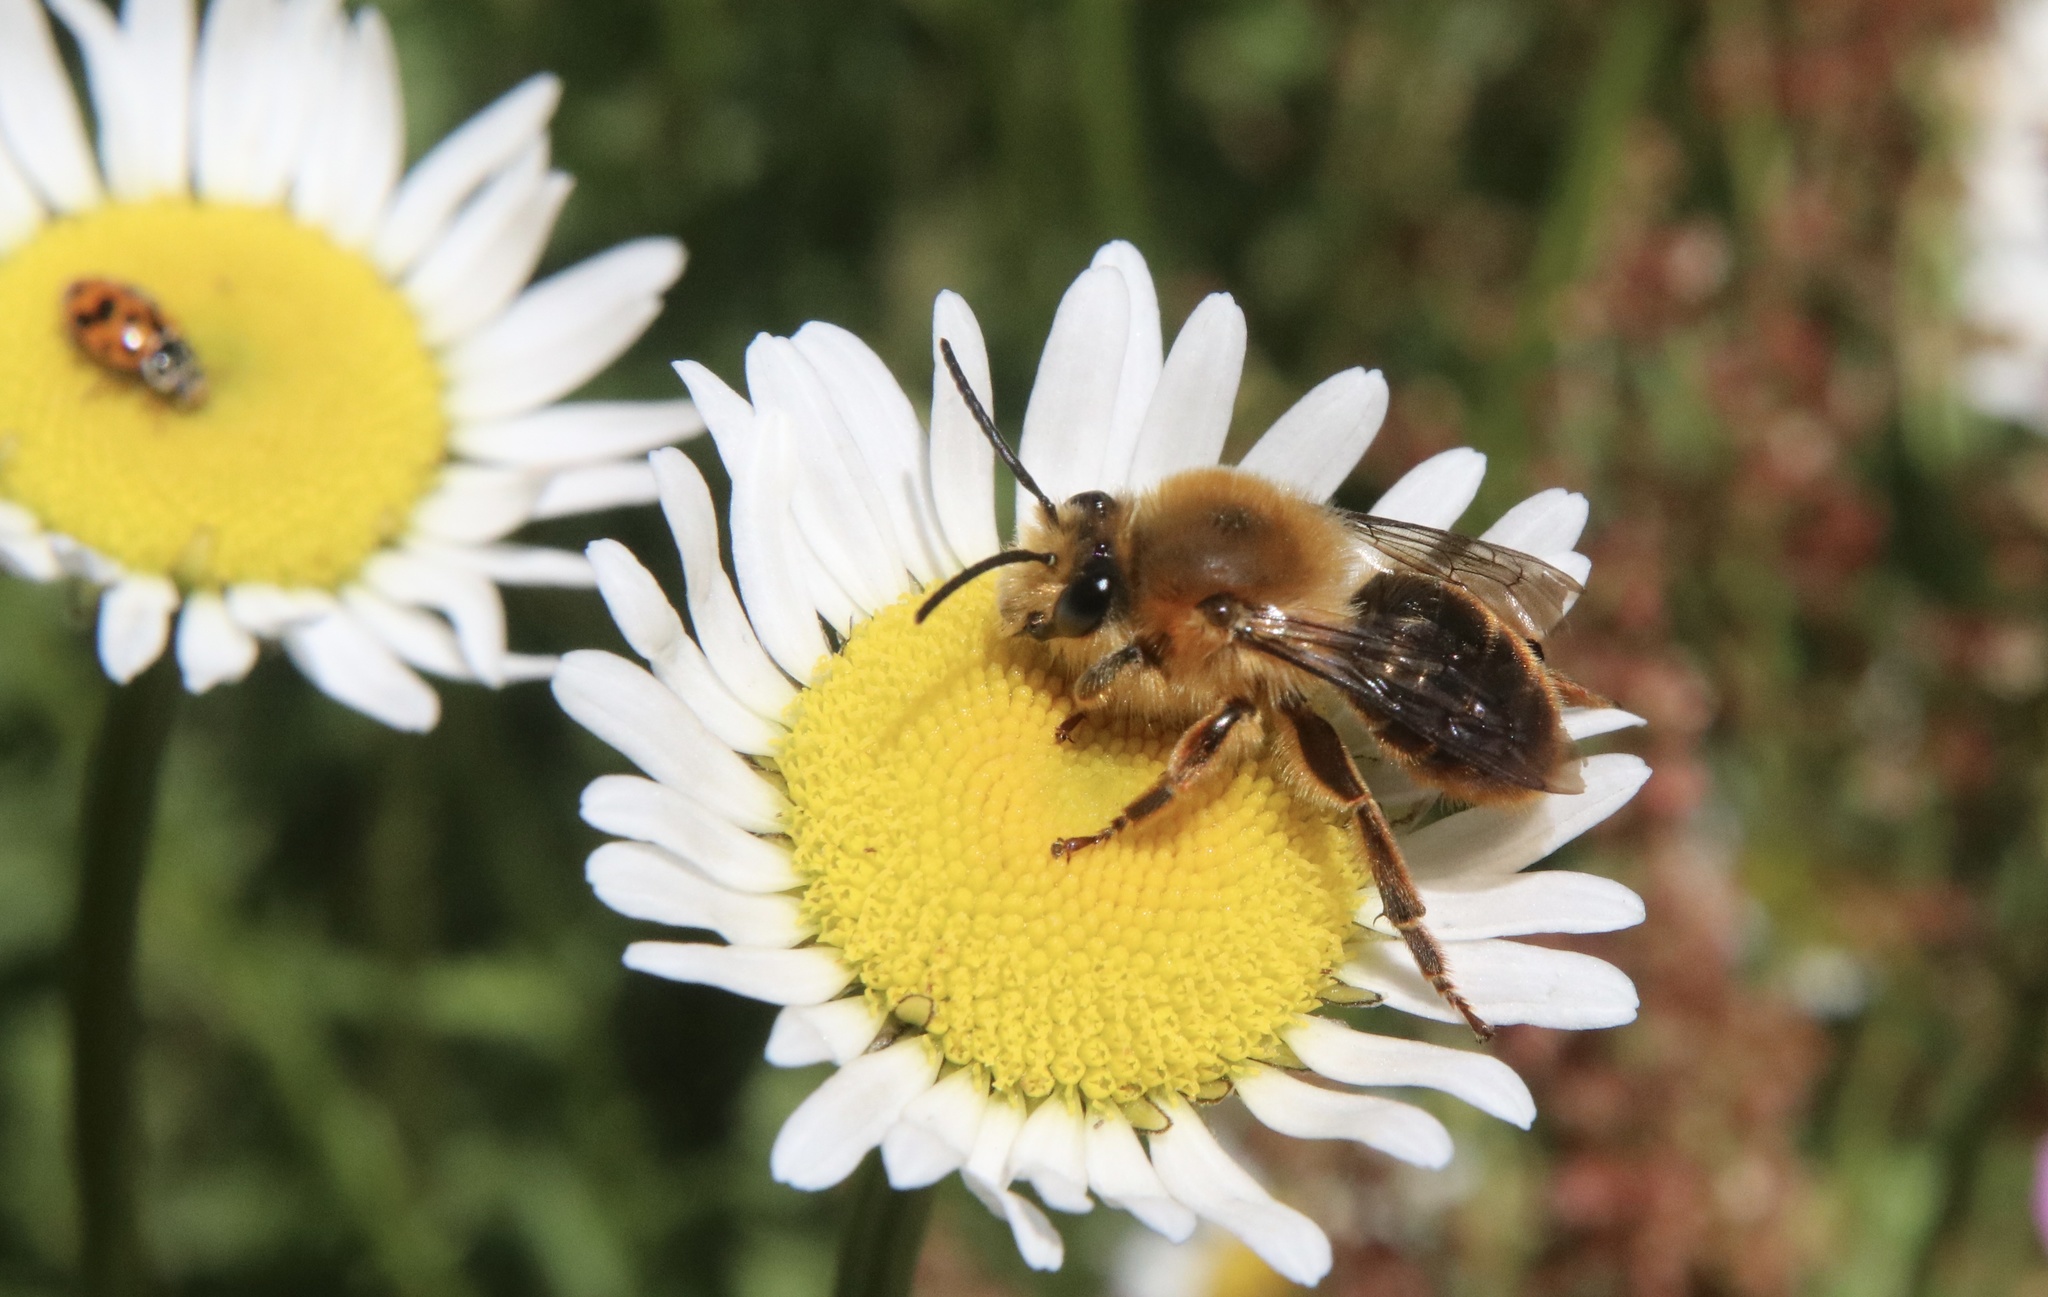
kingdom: Animalia
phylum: Arthropoda
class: Insecta
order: Hymenoptera
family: Colletidae
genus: Cadeguala
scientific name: Cadeguala occidentalis
